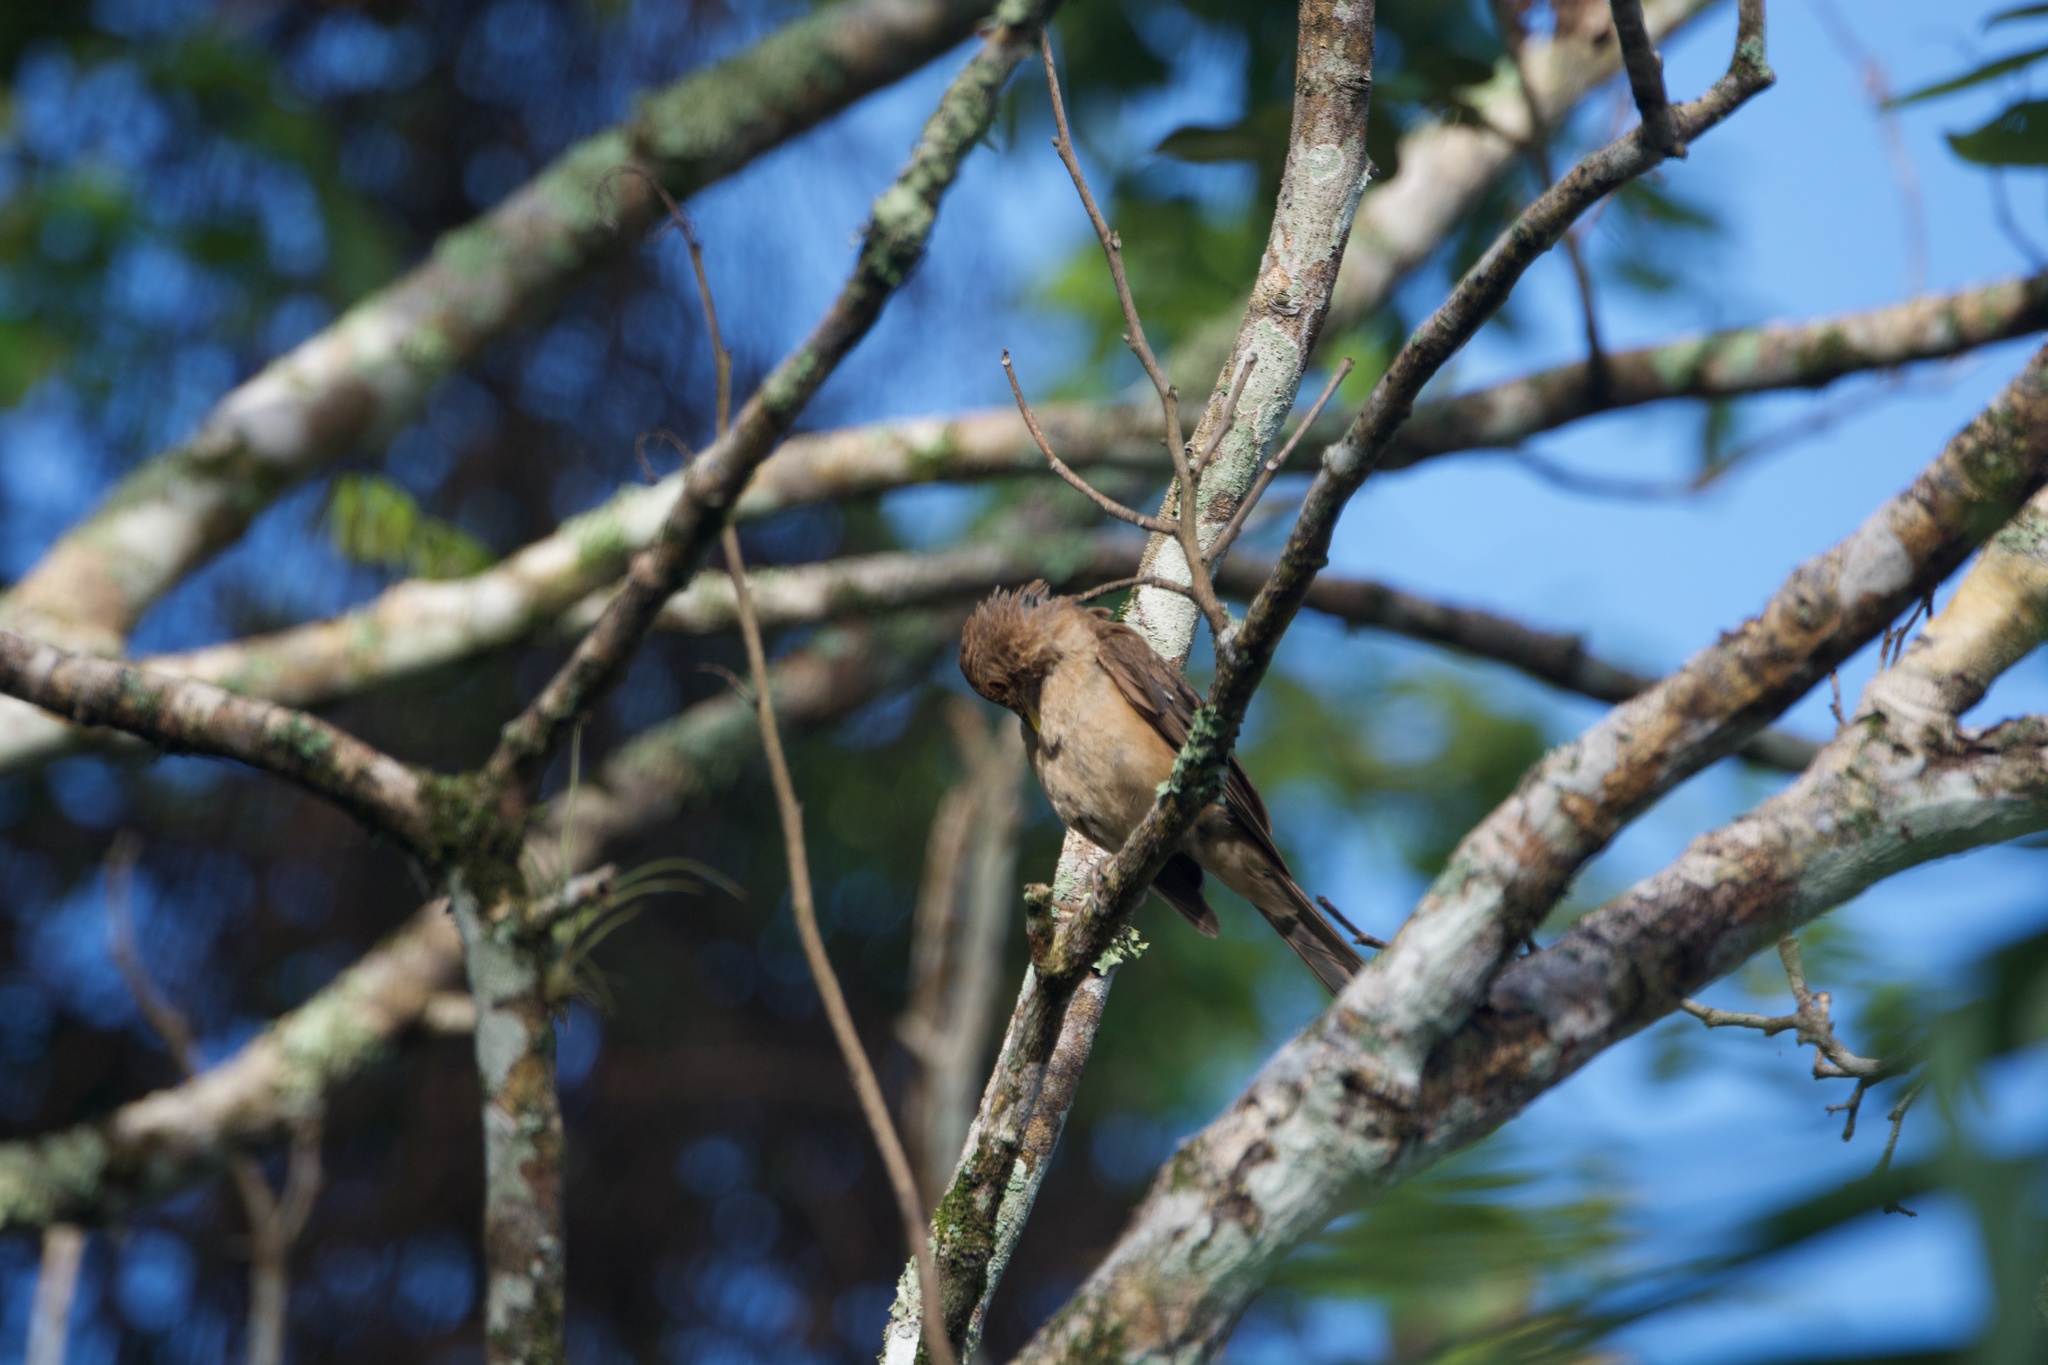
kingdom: Animalia
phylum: Chordata
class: Aves
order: Passeriformes
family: Turdidae
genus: Turdus
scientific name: Turdus grayi
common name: Clay-colored thrush
